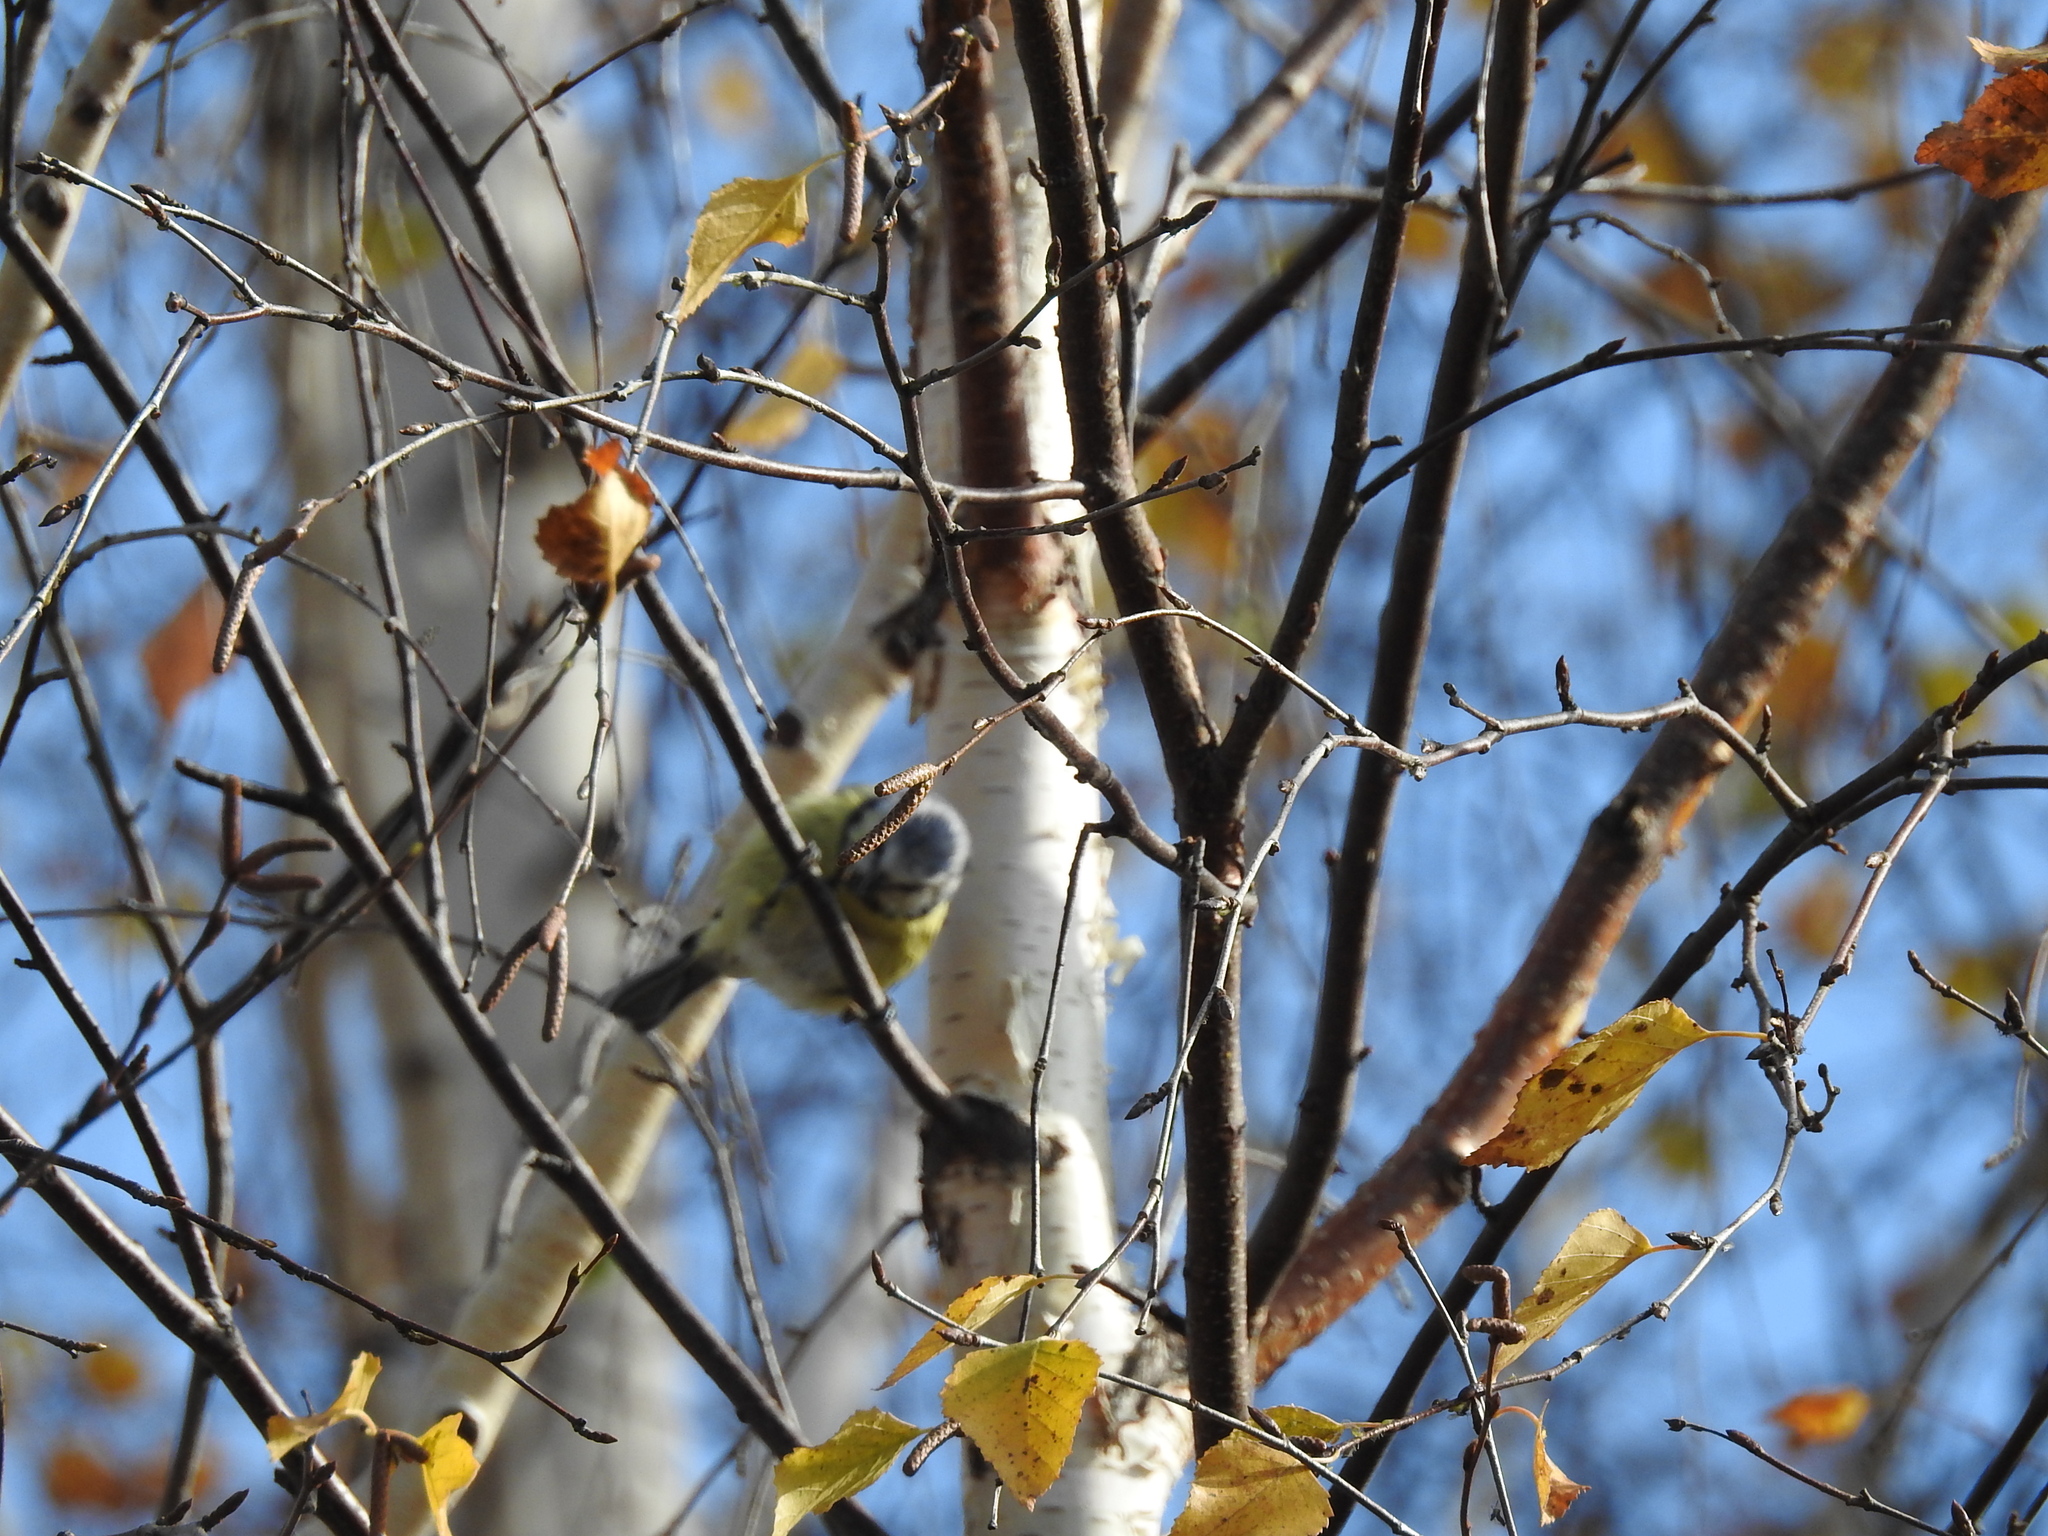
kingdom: Animalia
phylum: Chordata
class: Aves
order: Passeriformes
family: Paridae
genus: Cyanistes
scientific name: Cyanistes caeruleus
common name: Eurasian blue tit
